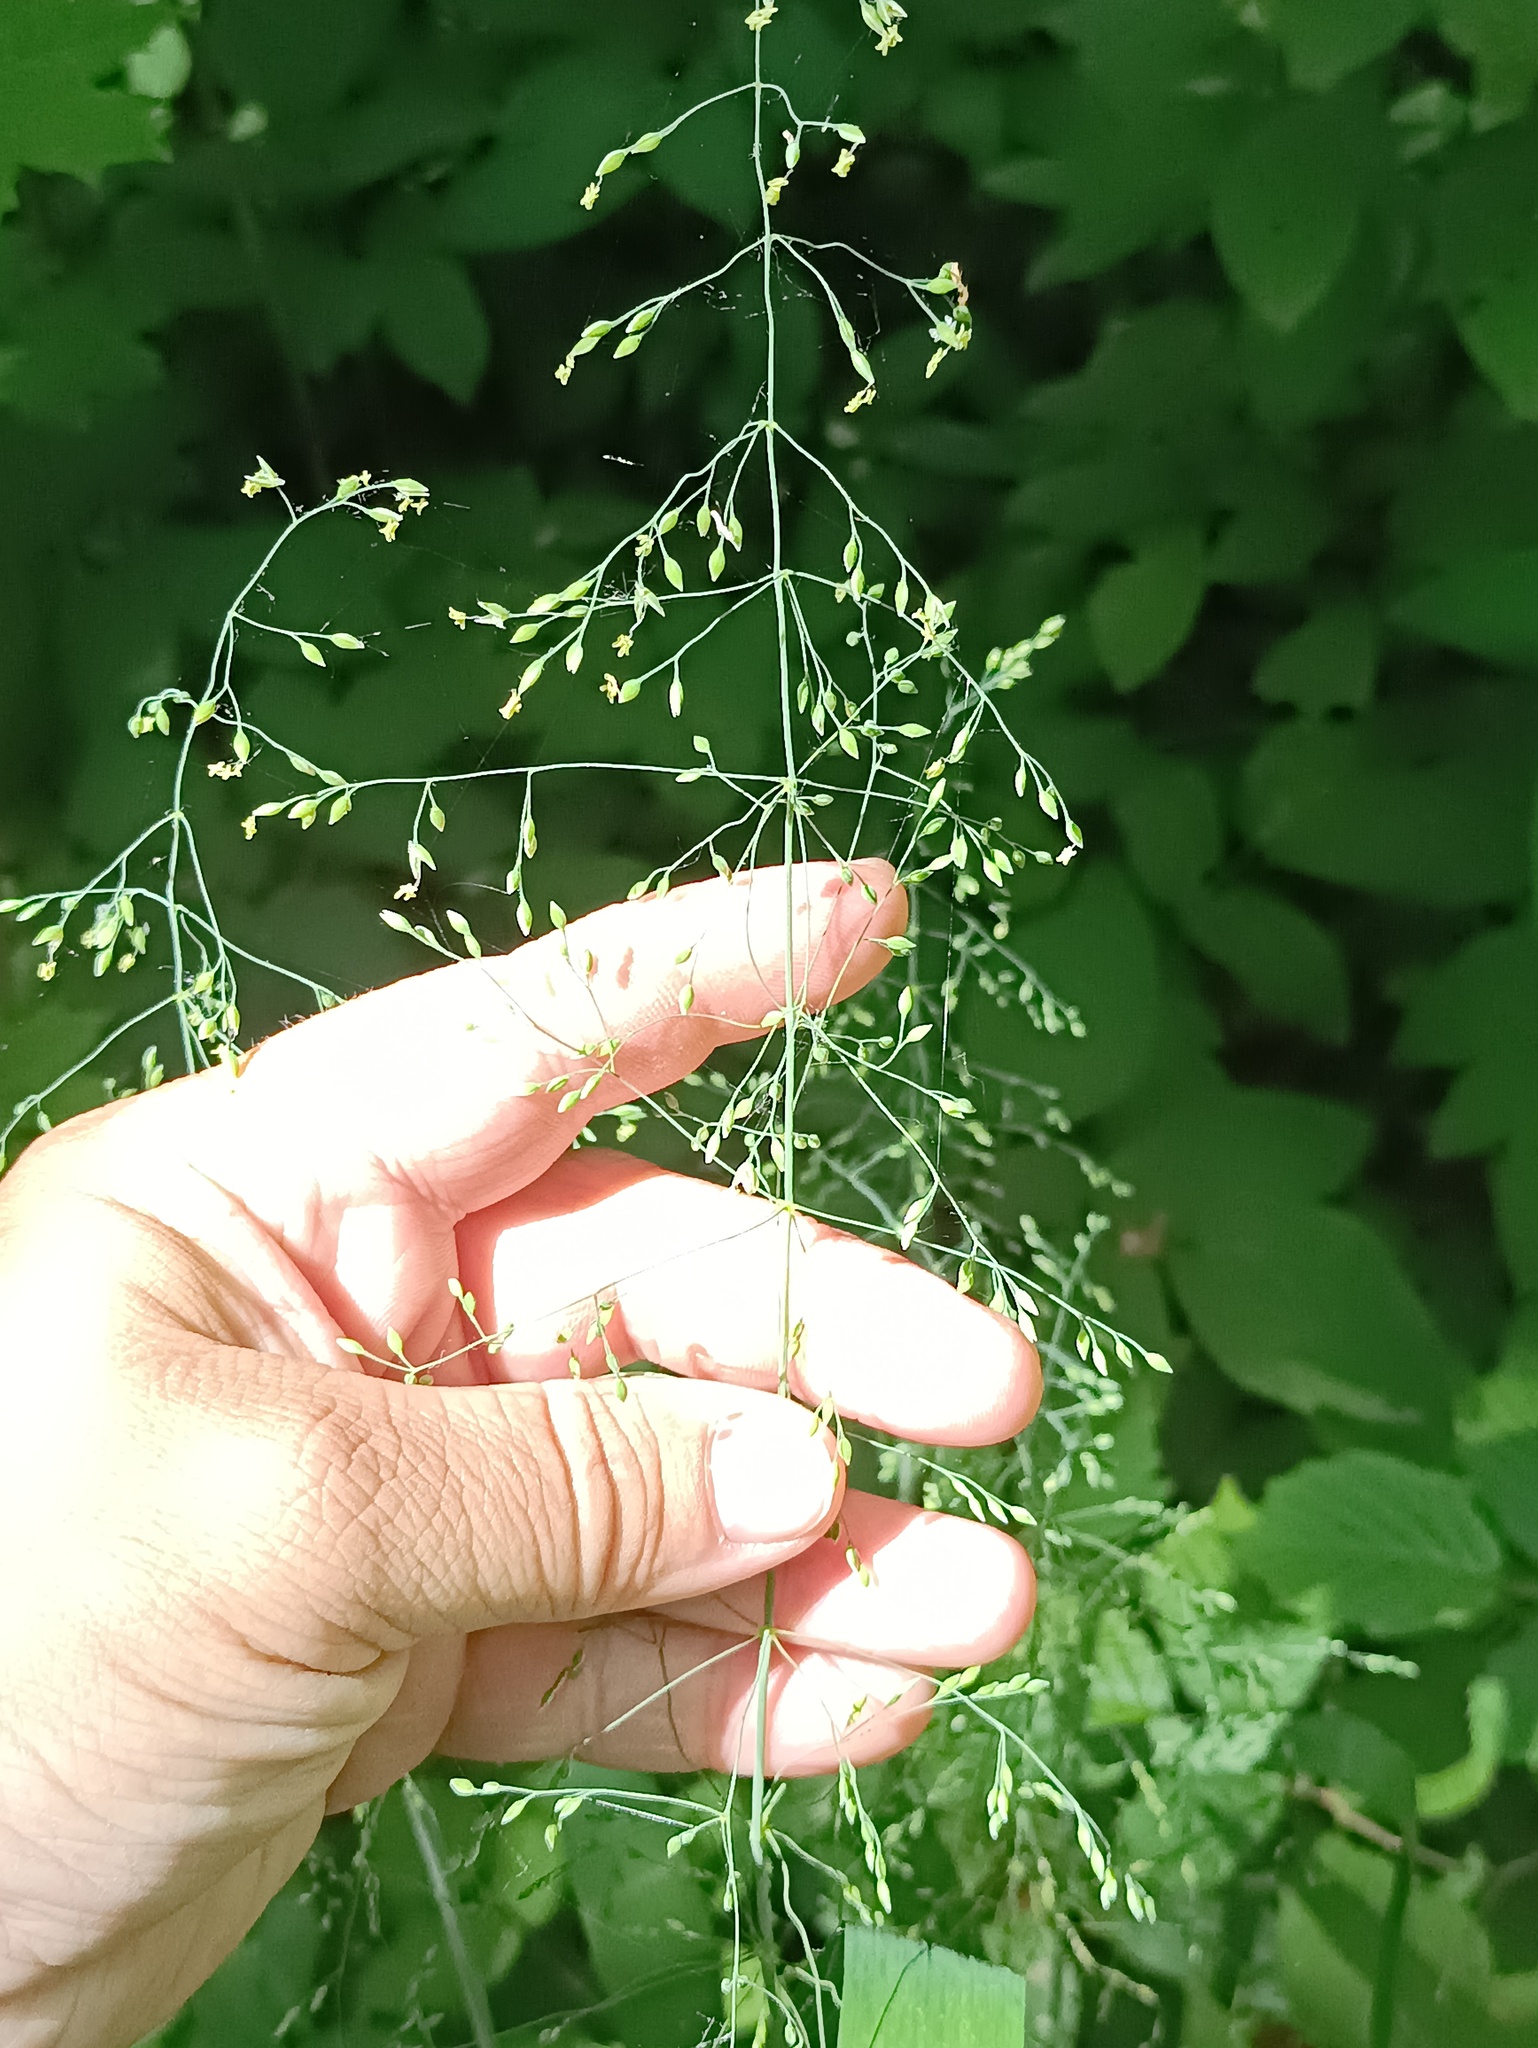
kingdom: Plantae
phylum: Tracheophyta
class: Liliopsida
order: Poales
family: Poaceae
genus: Milium
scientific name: Milium effusum
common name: Wood millet
